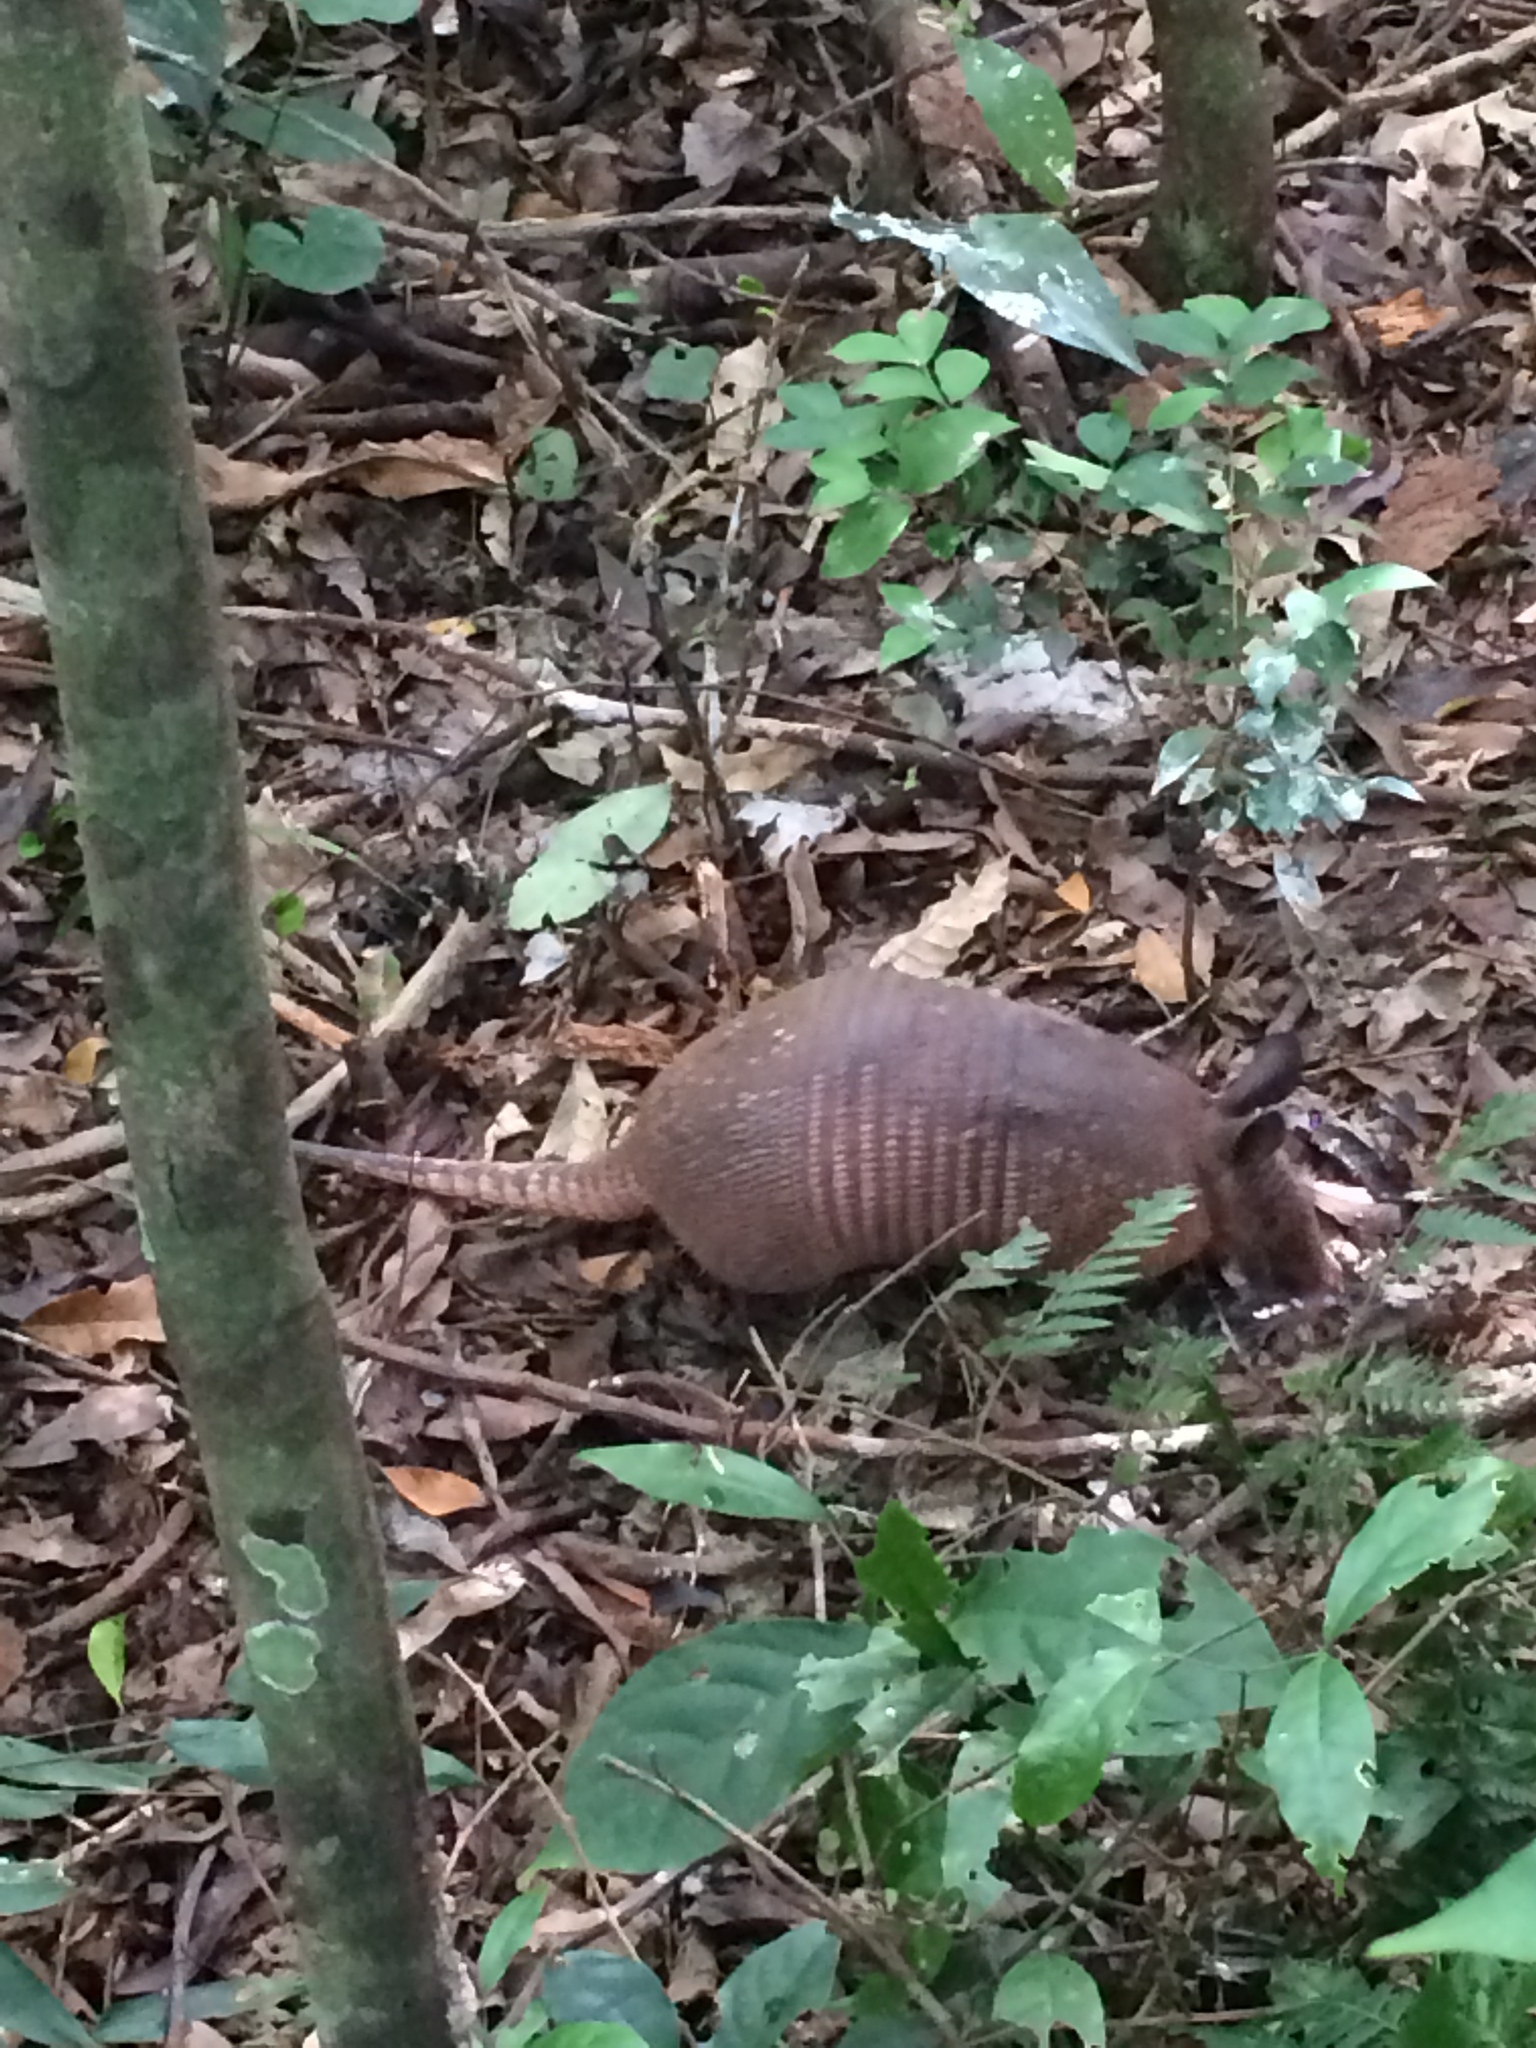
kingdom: Animalia
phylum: Chordata
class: Mammalia
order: Cingulata
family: Dasypodidae
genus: Dasypus
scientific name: Dasypus novemcinctus
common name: Nine-banded armadillo
